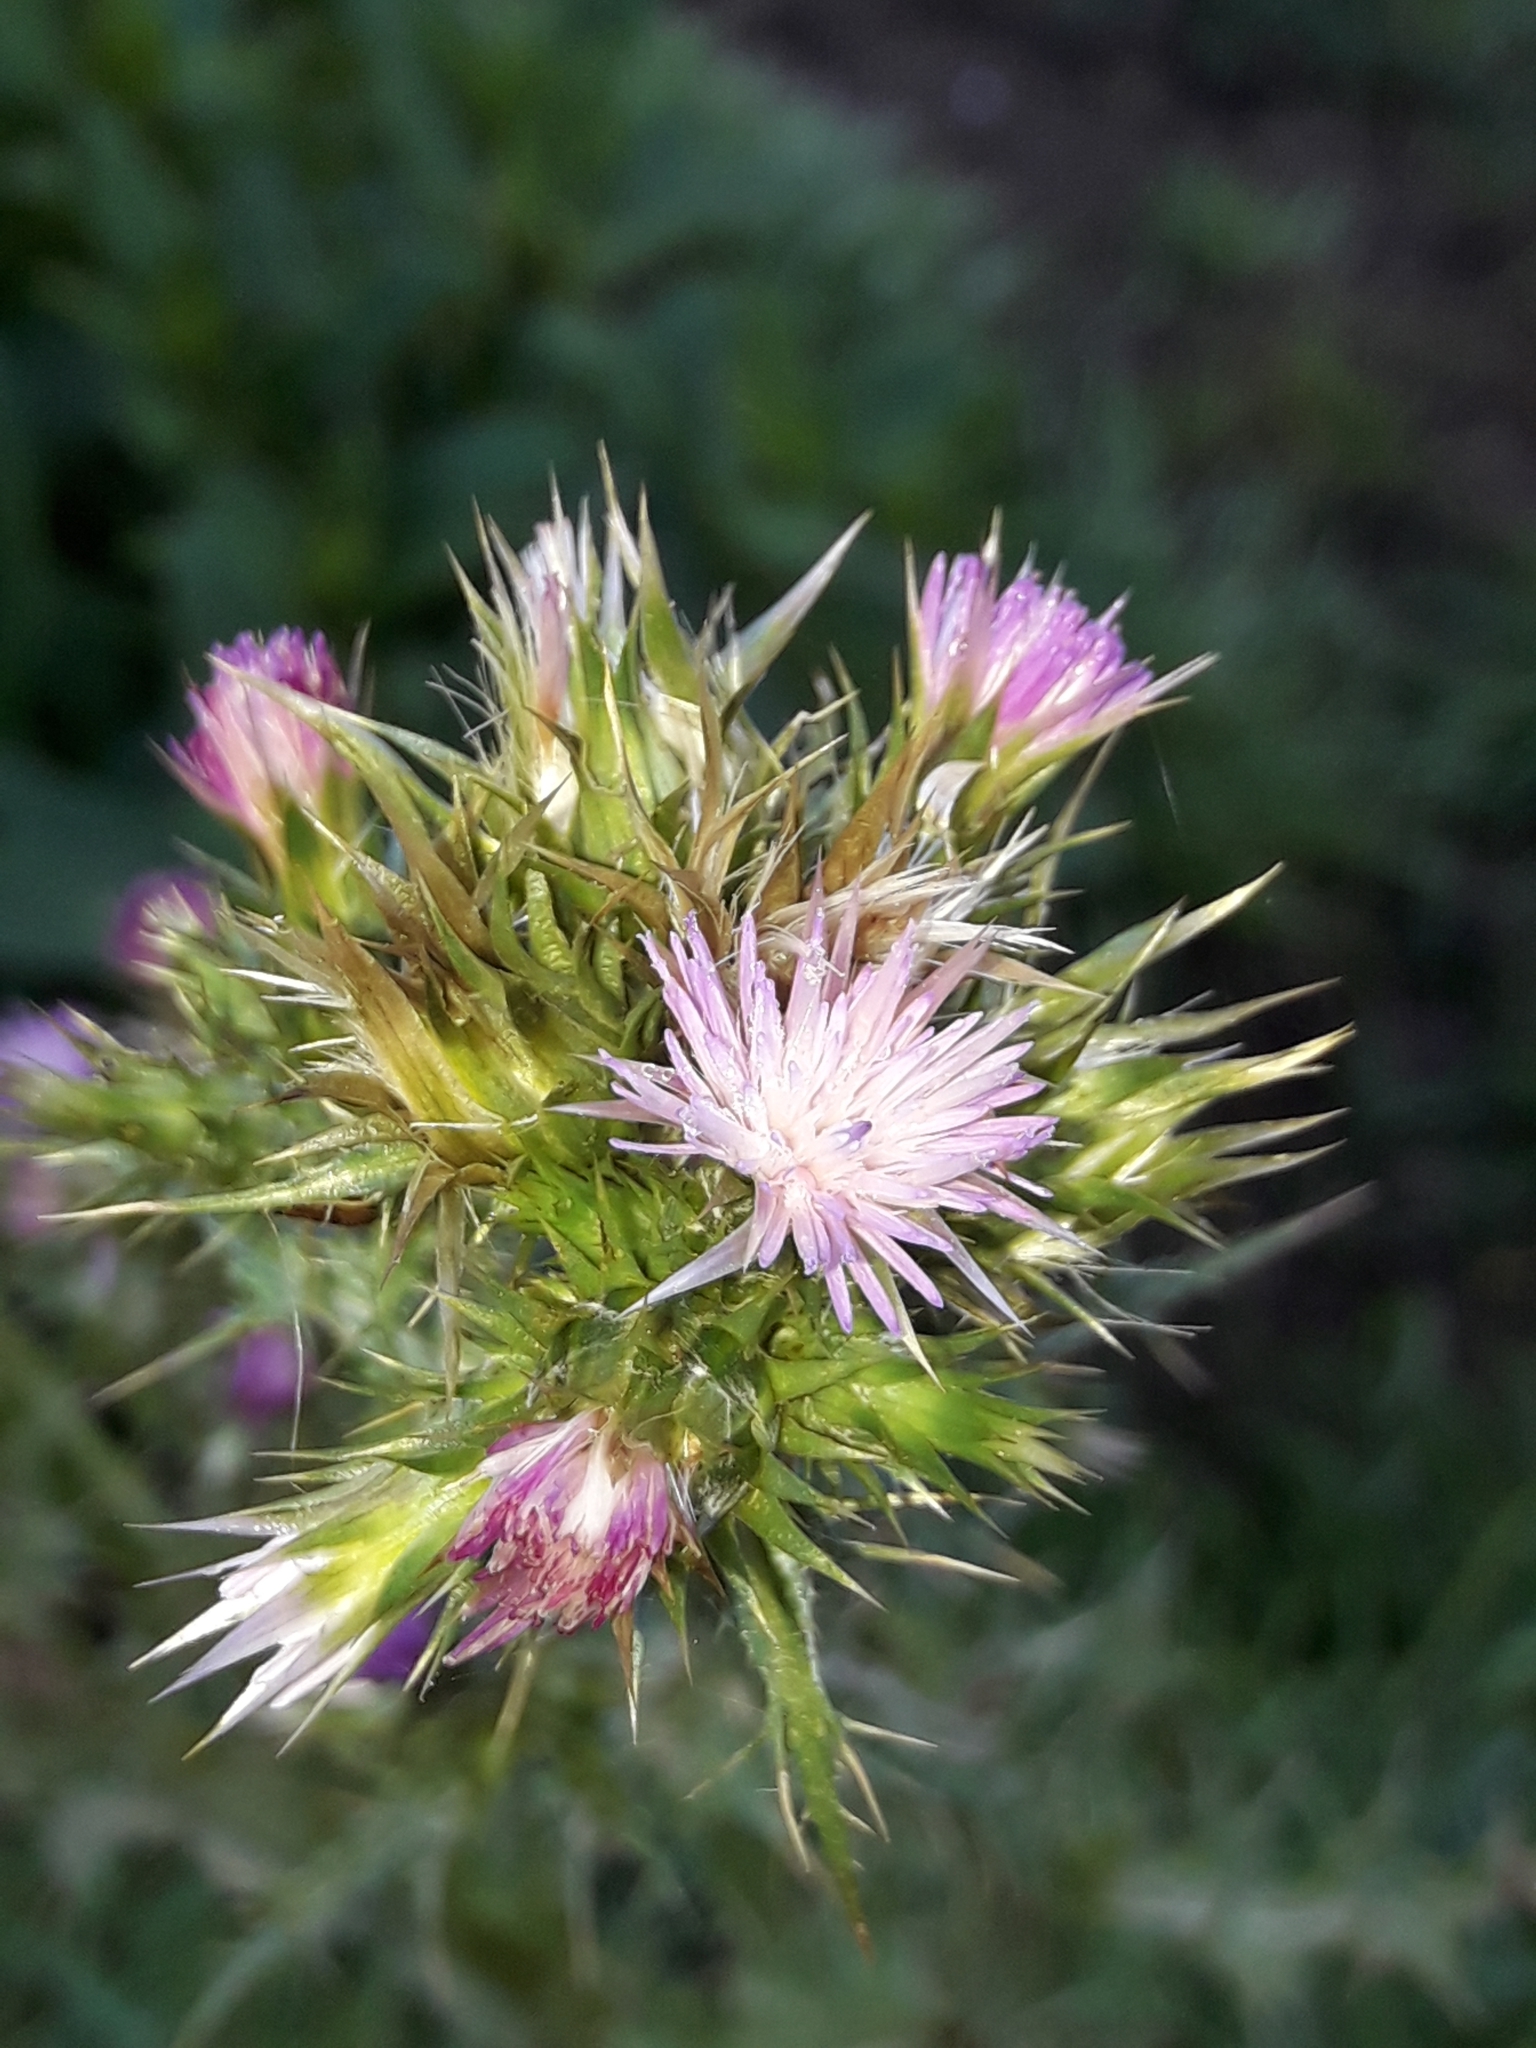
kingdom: Plantae
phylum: Tracheophyta
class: Magnoliopsida
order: Asterales
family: Asteraceae
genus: Carduus
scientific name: Carduus tenuiflorus
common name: Slender thistle
